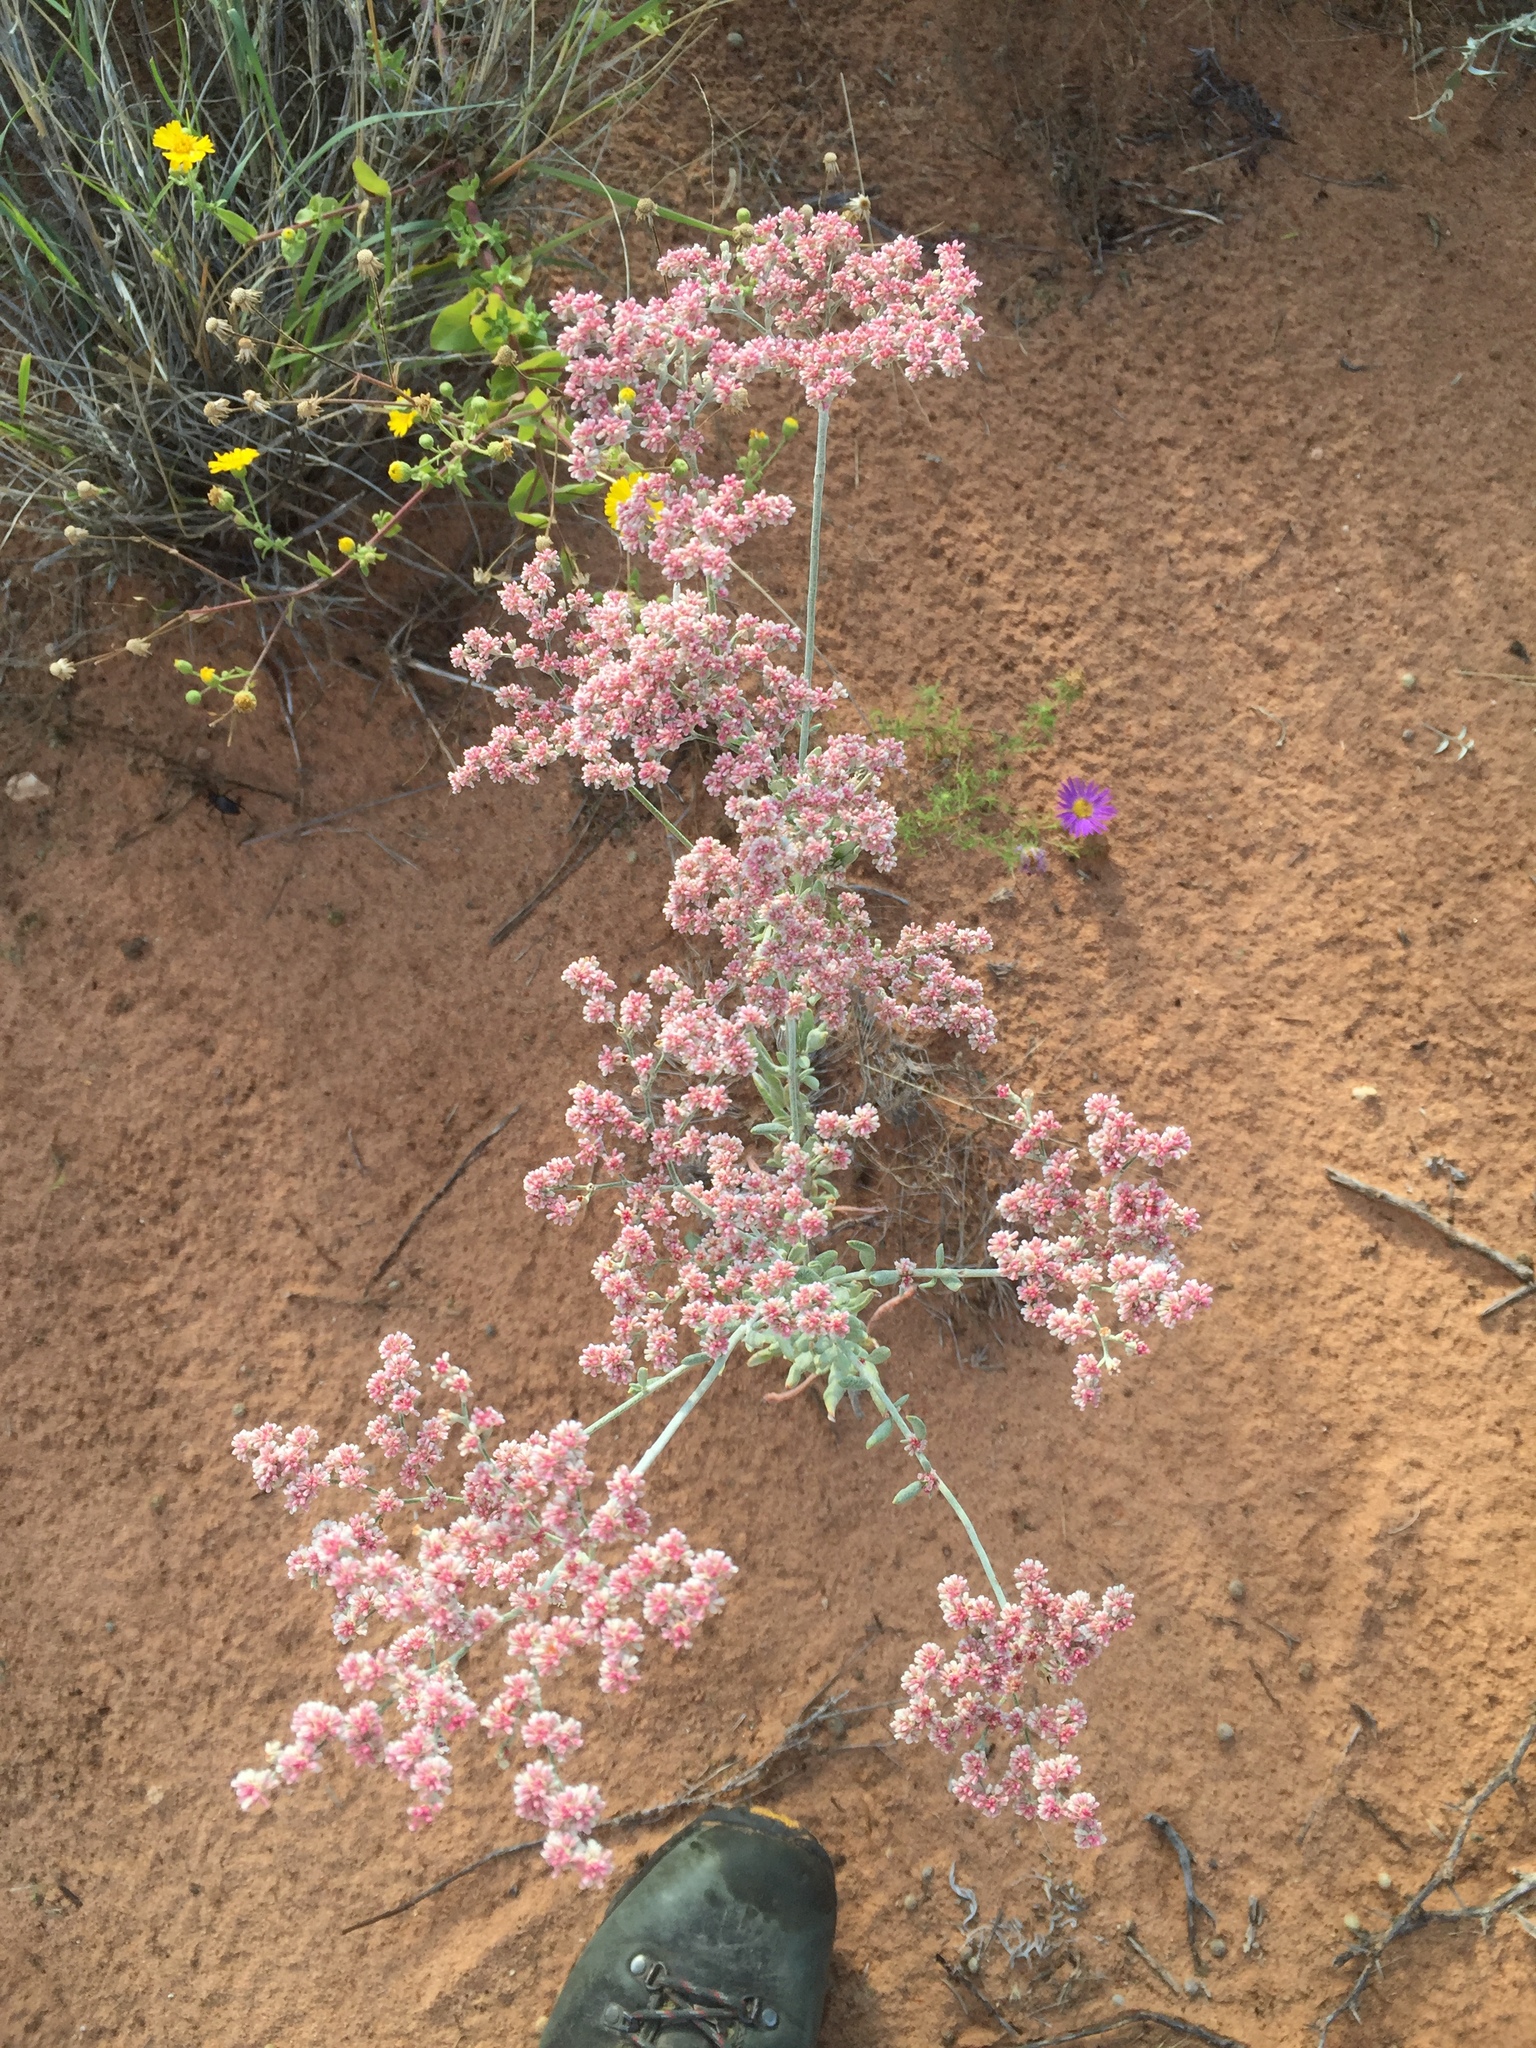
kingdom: Plantae
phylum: Tracheophyta
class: Magnoliopsida
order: Caryophyllales
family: Polygonaceae
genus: Eriogonum
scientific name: Eriogonum annuum
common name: Annual wild buckwheat
